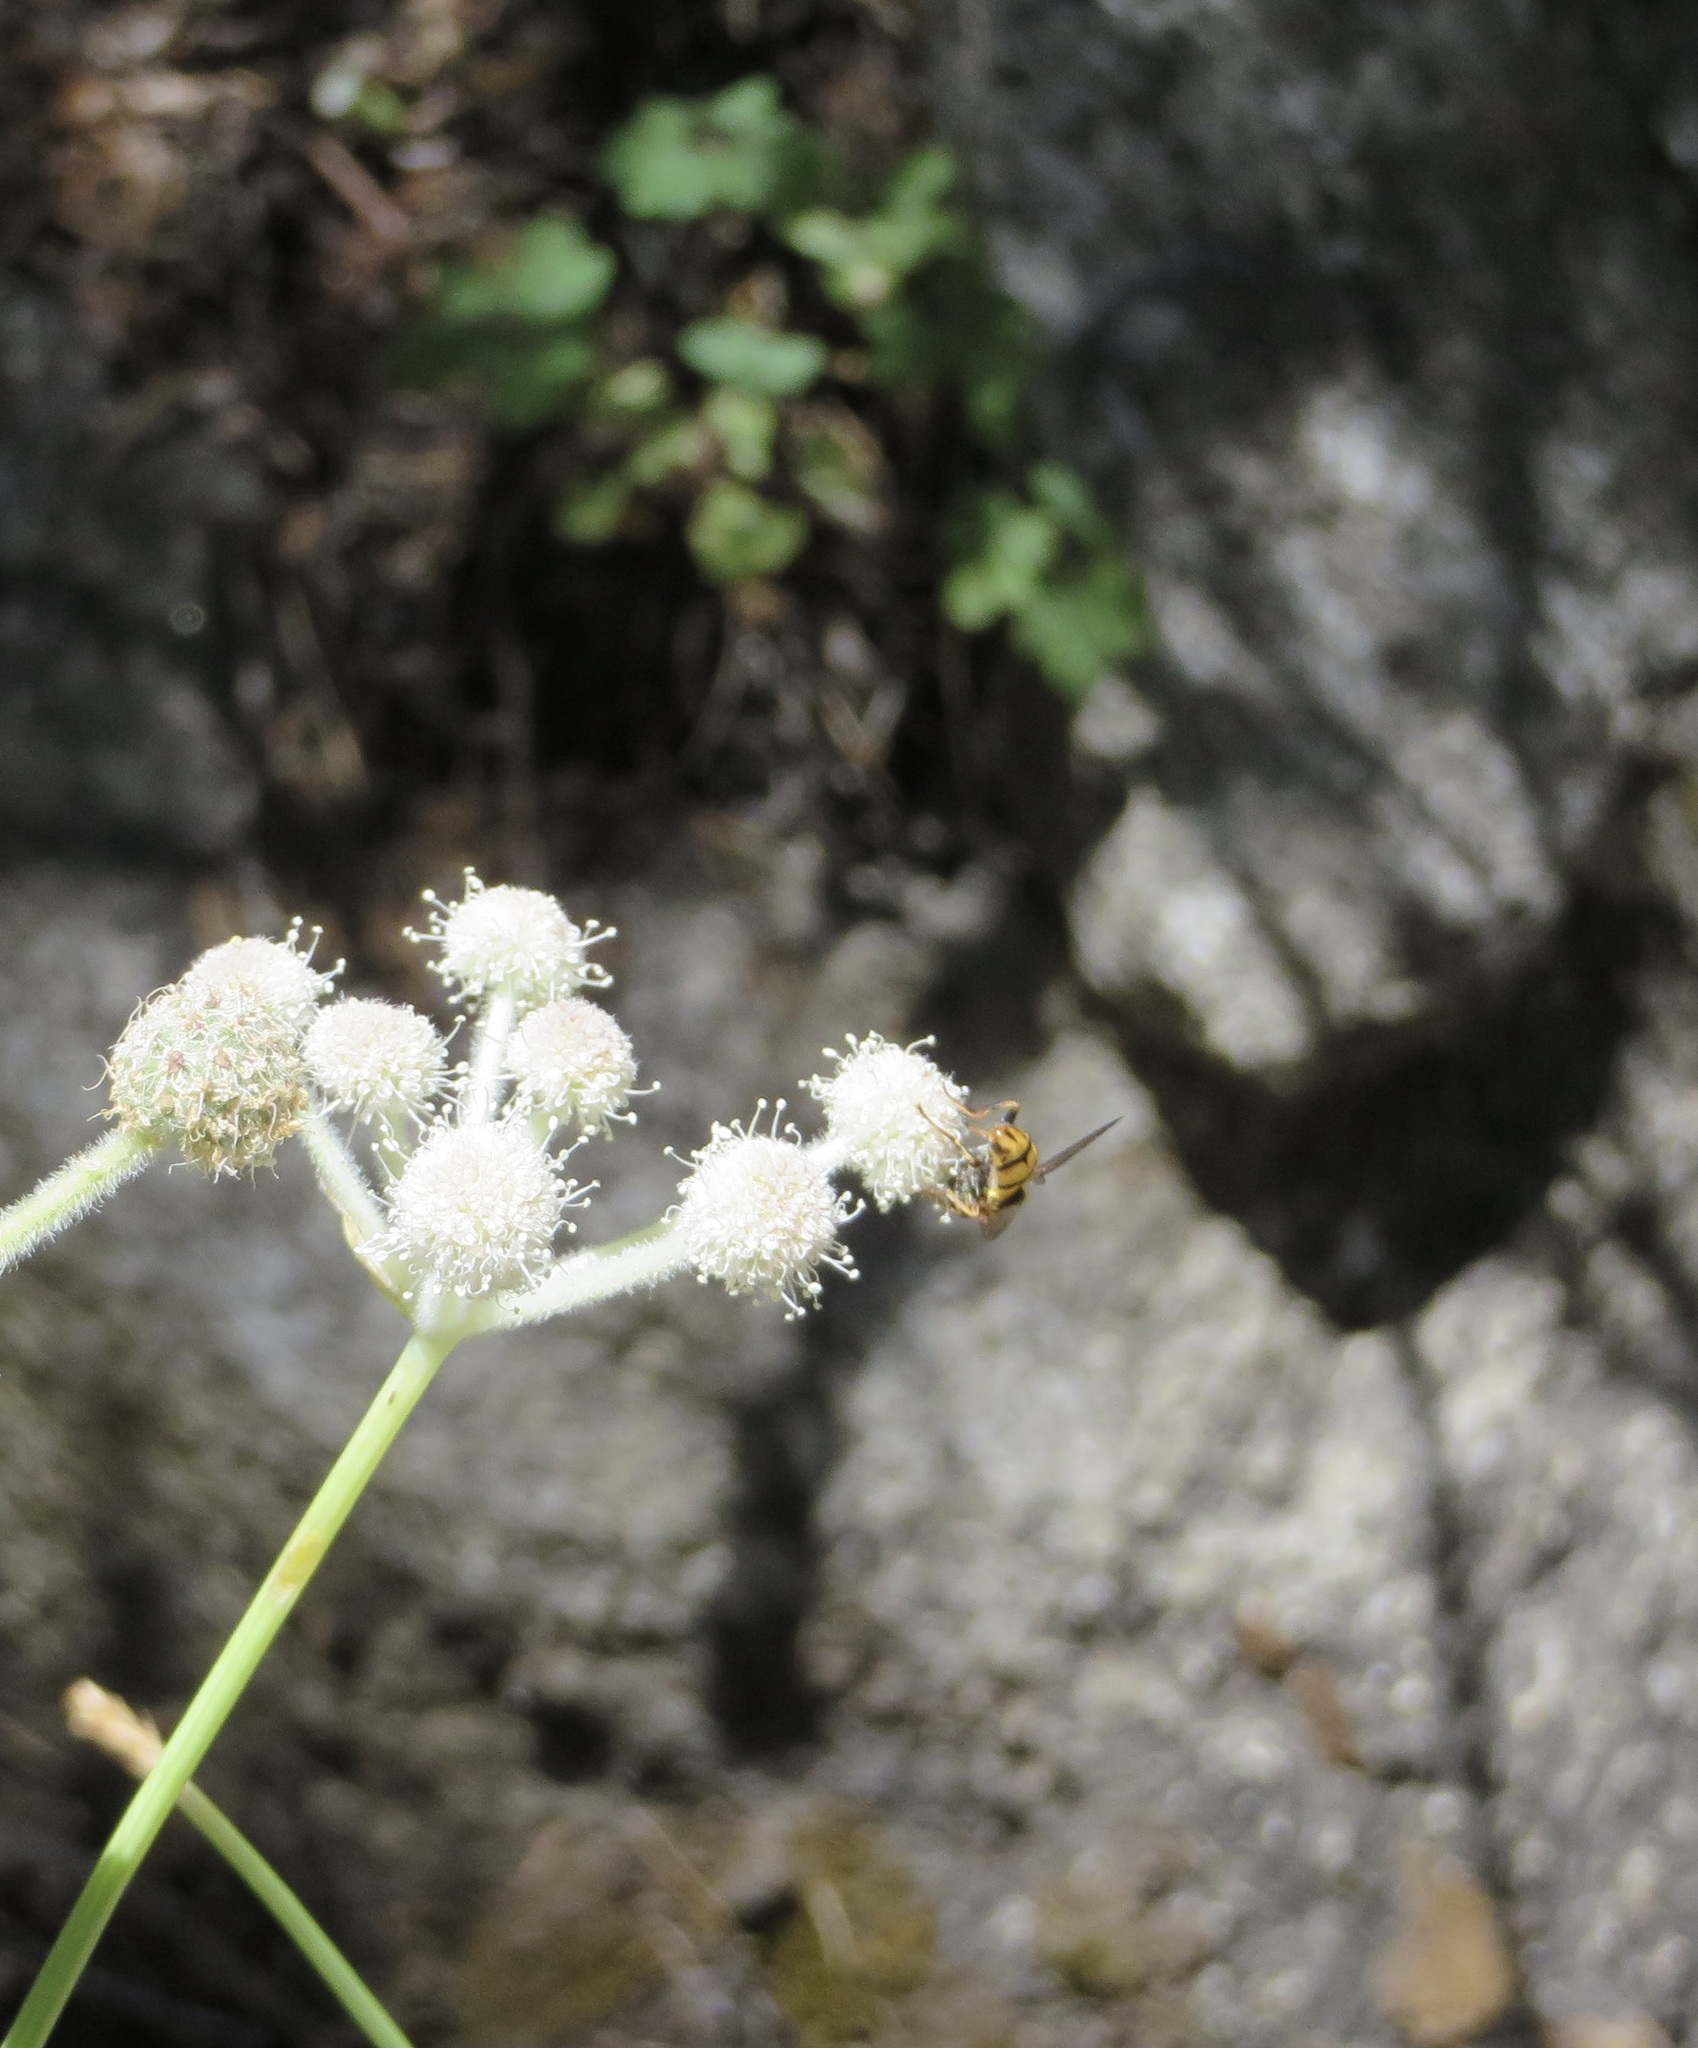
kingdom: Animalia
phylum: Arthropoda
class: Insecta
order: Diptera
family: Syrphidae
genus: Blera
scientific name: Blera scitula
